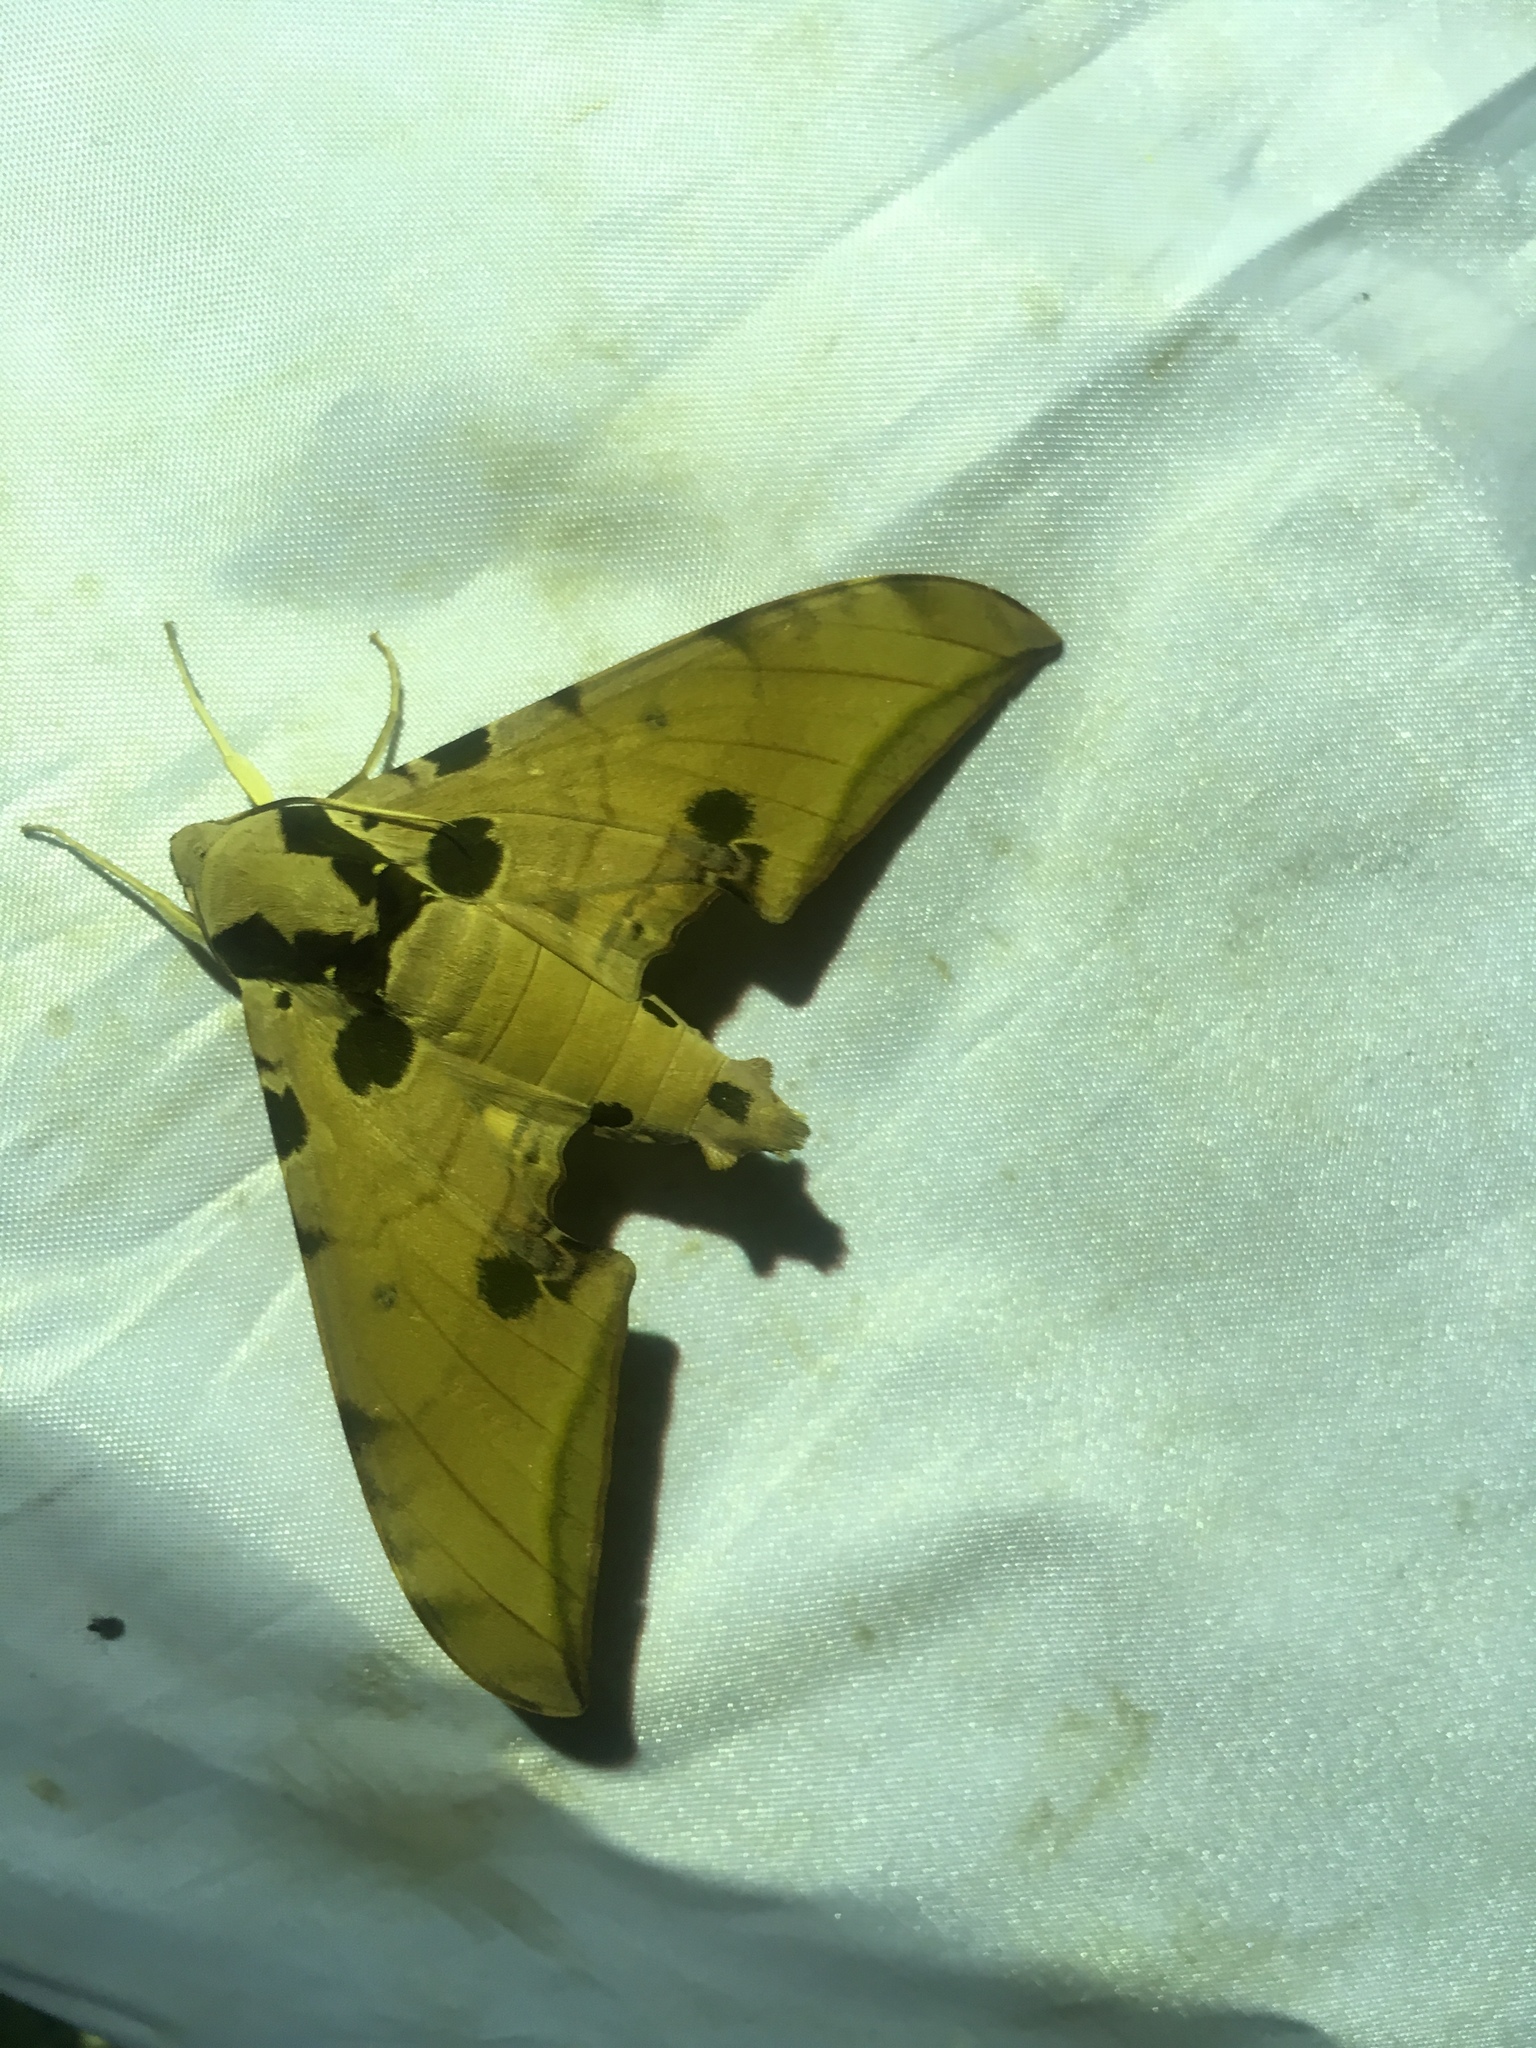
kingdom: Animalia
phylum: Arthropoda
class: Insecta
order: Lepidoptera
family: Sphingidae
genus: Ambulyx
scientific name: Ambulyx ochracea
